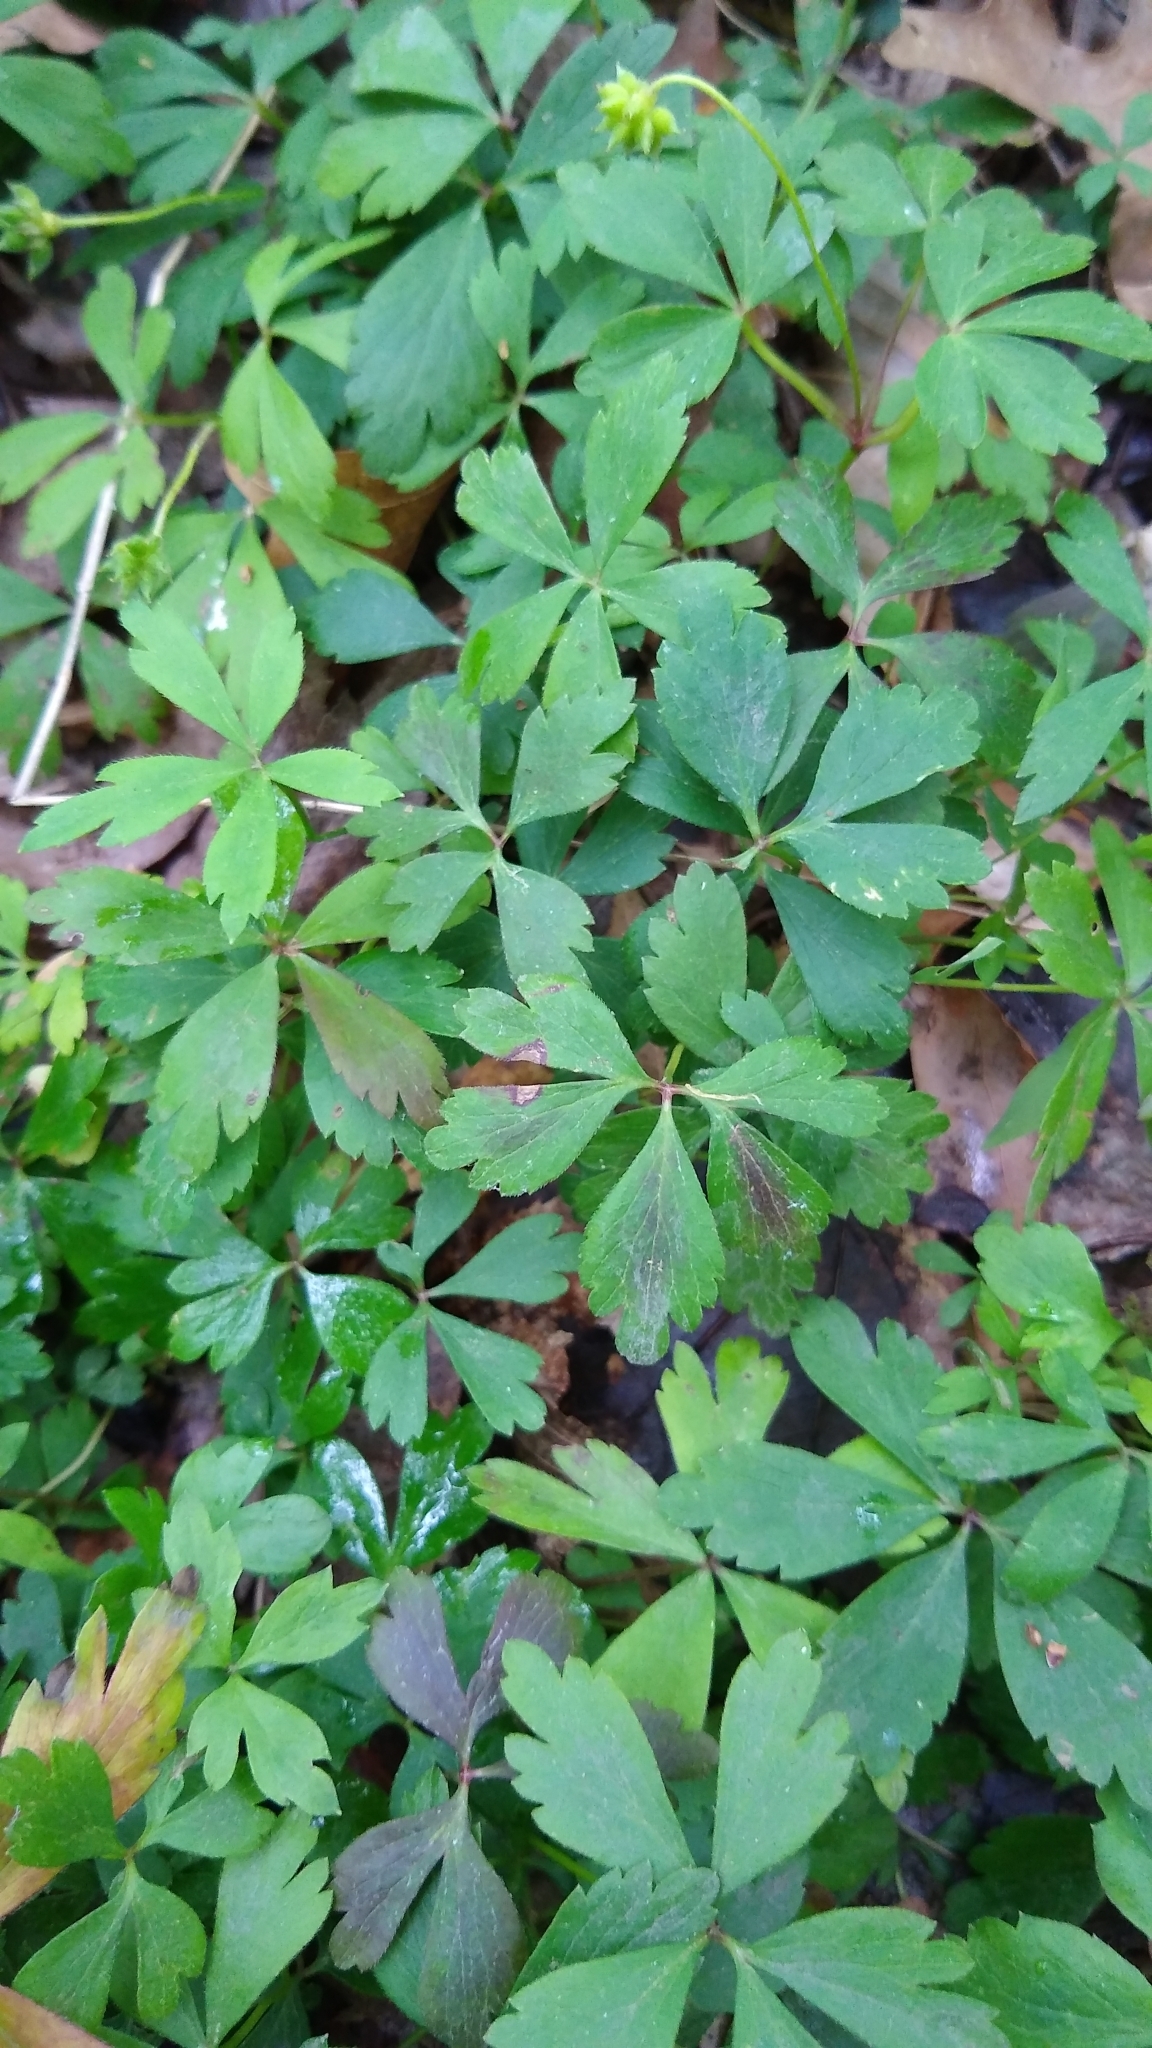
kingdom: Plantae
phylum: Tracheophyta
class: Magnoliopsida
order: Ranunculales
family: Ranunculaceae
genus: Anemone
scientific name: Anemone quinquefolia
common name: Wood anemone
